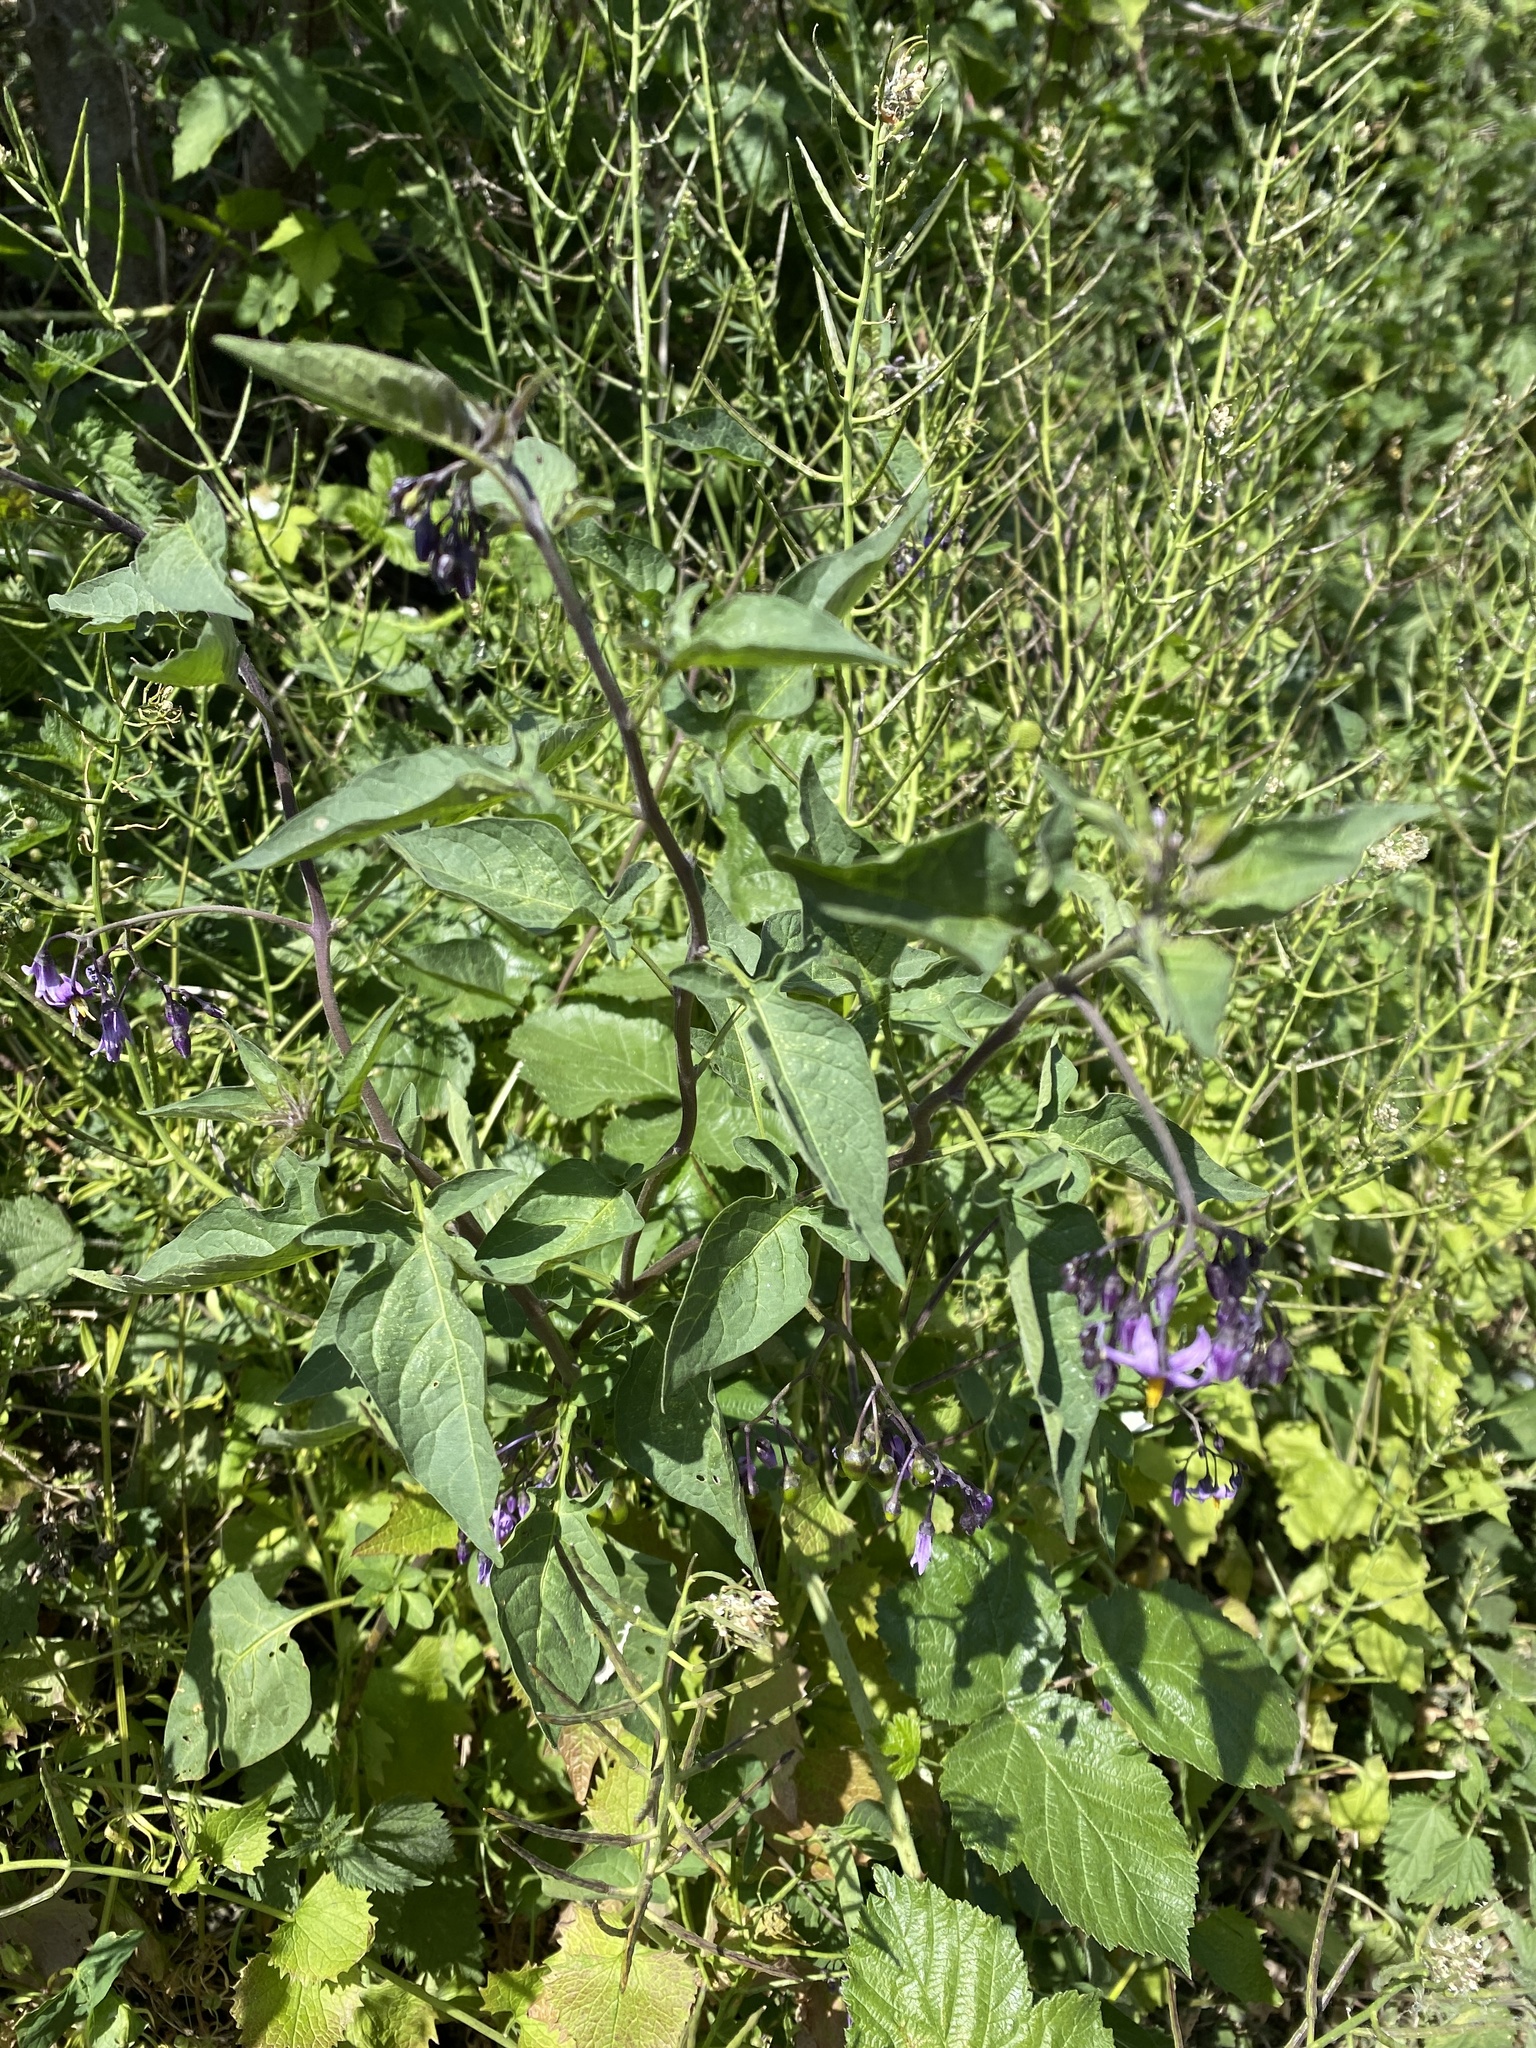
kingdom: Plantae
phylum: Tracheophyta
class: Magnoliopsida
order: Solanales
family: Solanaceae
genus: Solanum
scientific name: Solanum dulcamara
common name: Climbing nightshade
